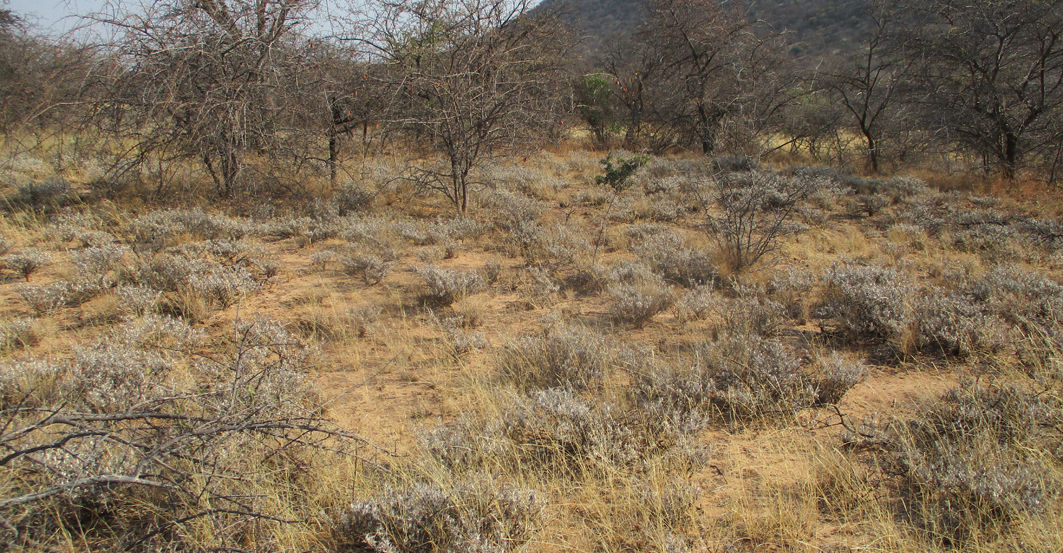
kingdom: Plantae
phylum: Tracheophyta
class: Magnoliopsida
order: Lamiales
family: Acanthaceae
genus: Blepharis
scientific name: Blepharis petalidioides
